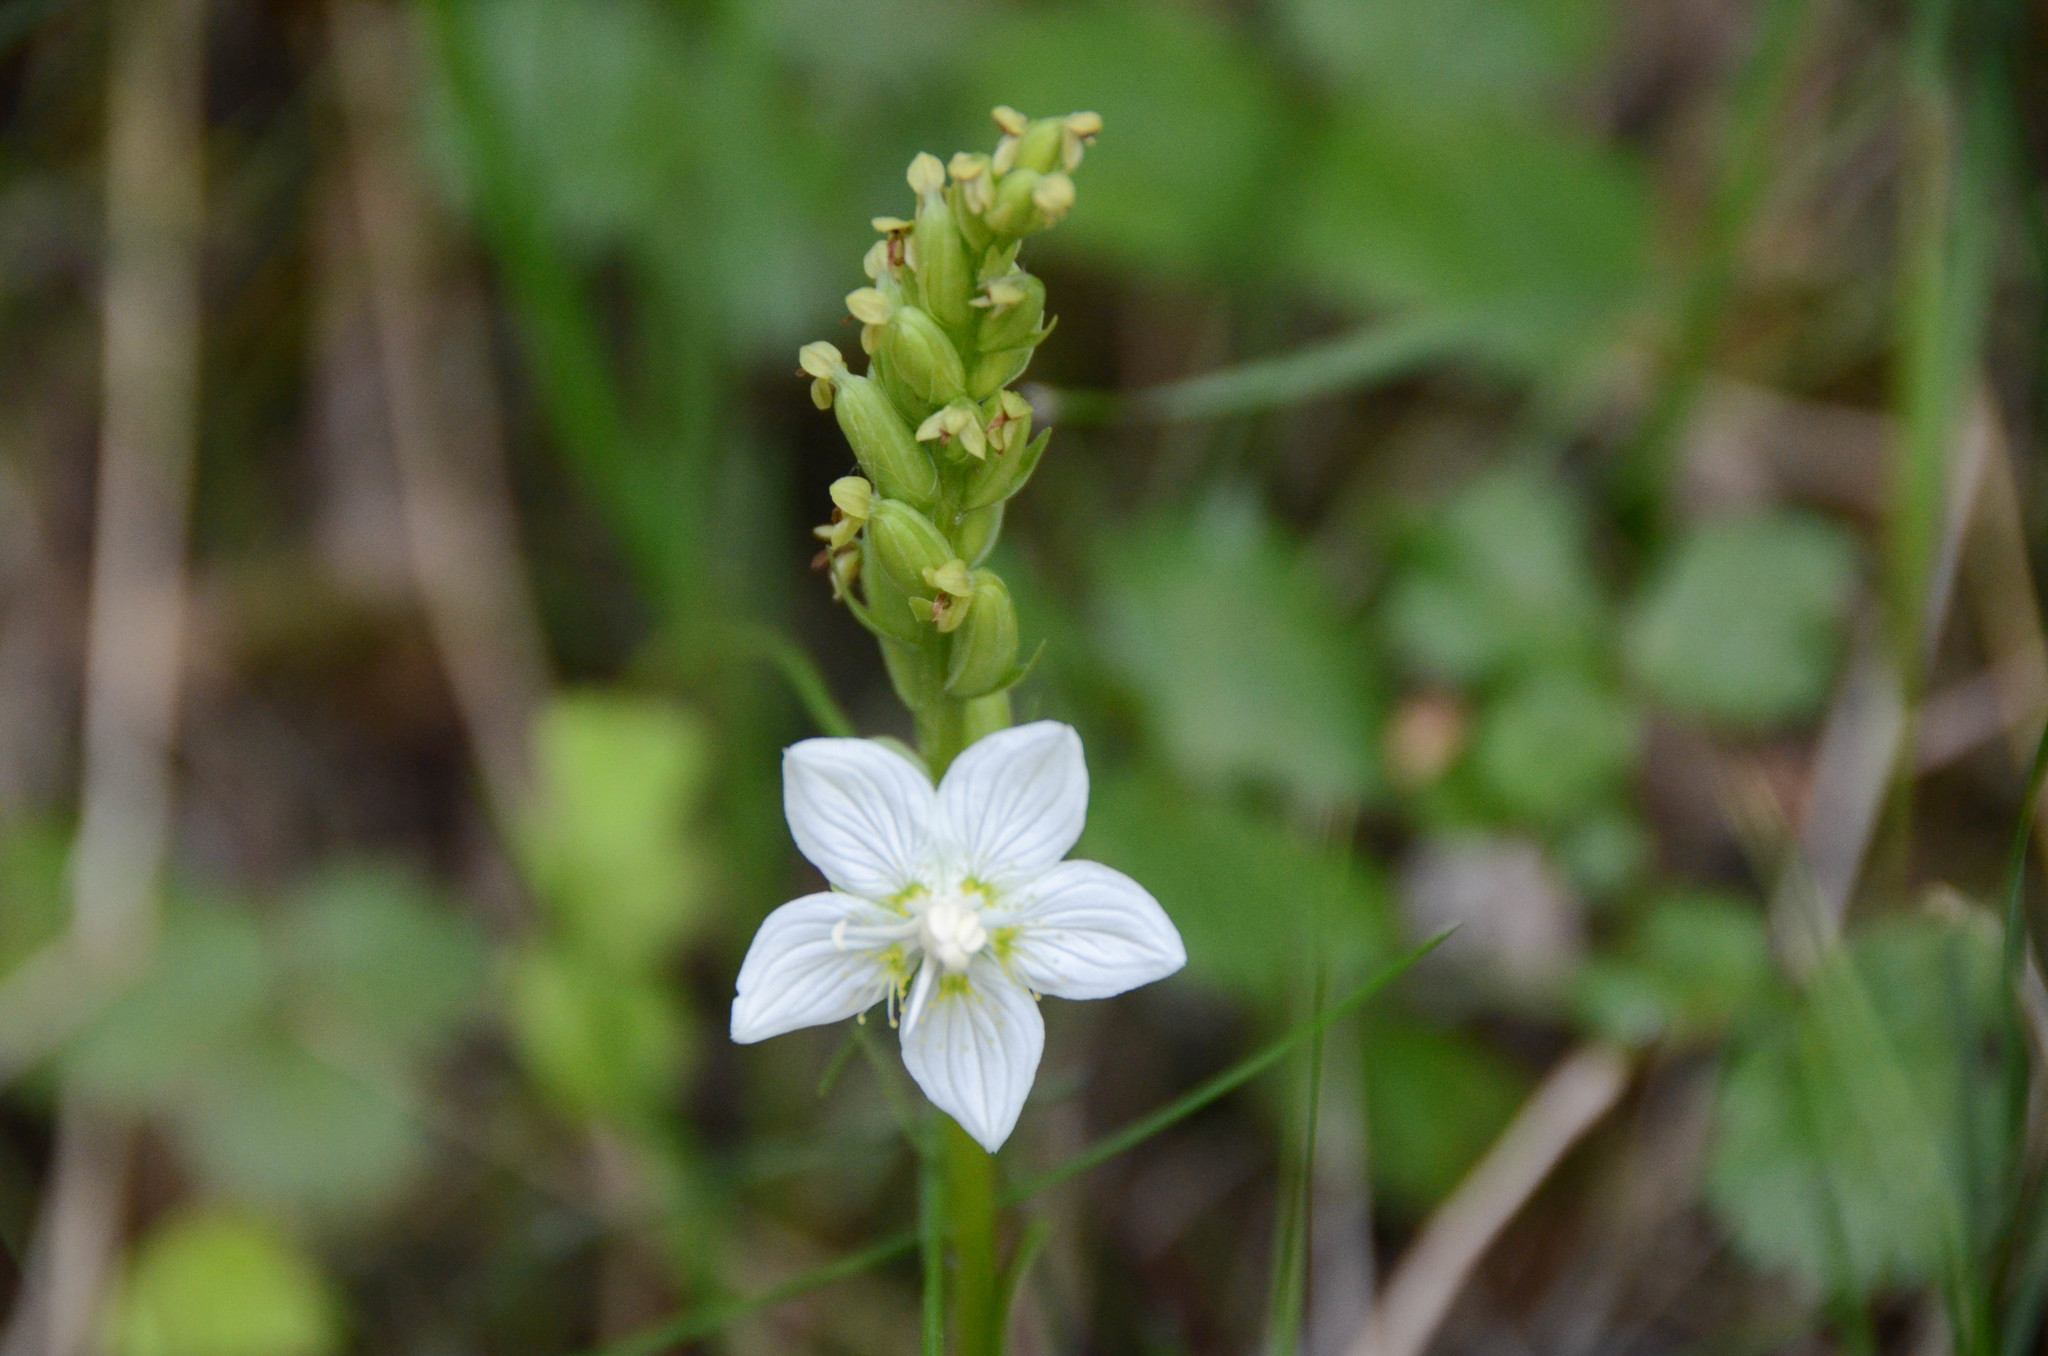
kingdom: Plantae
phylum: Tracheophyta
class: Magnoliopsida
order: Celastrales
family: Parnassiaceae
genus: Parnassia
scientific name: Parnassia palustris
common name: Grass-of-parnassus
